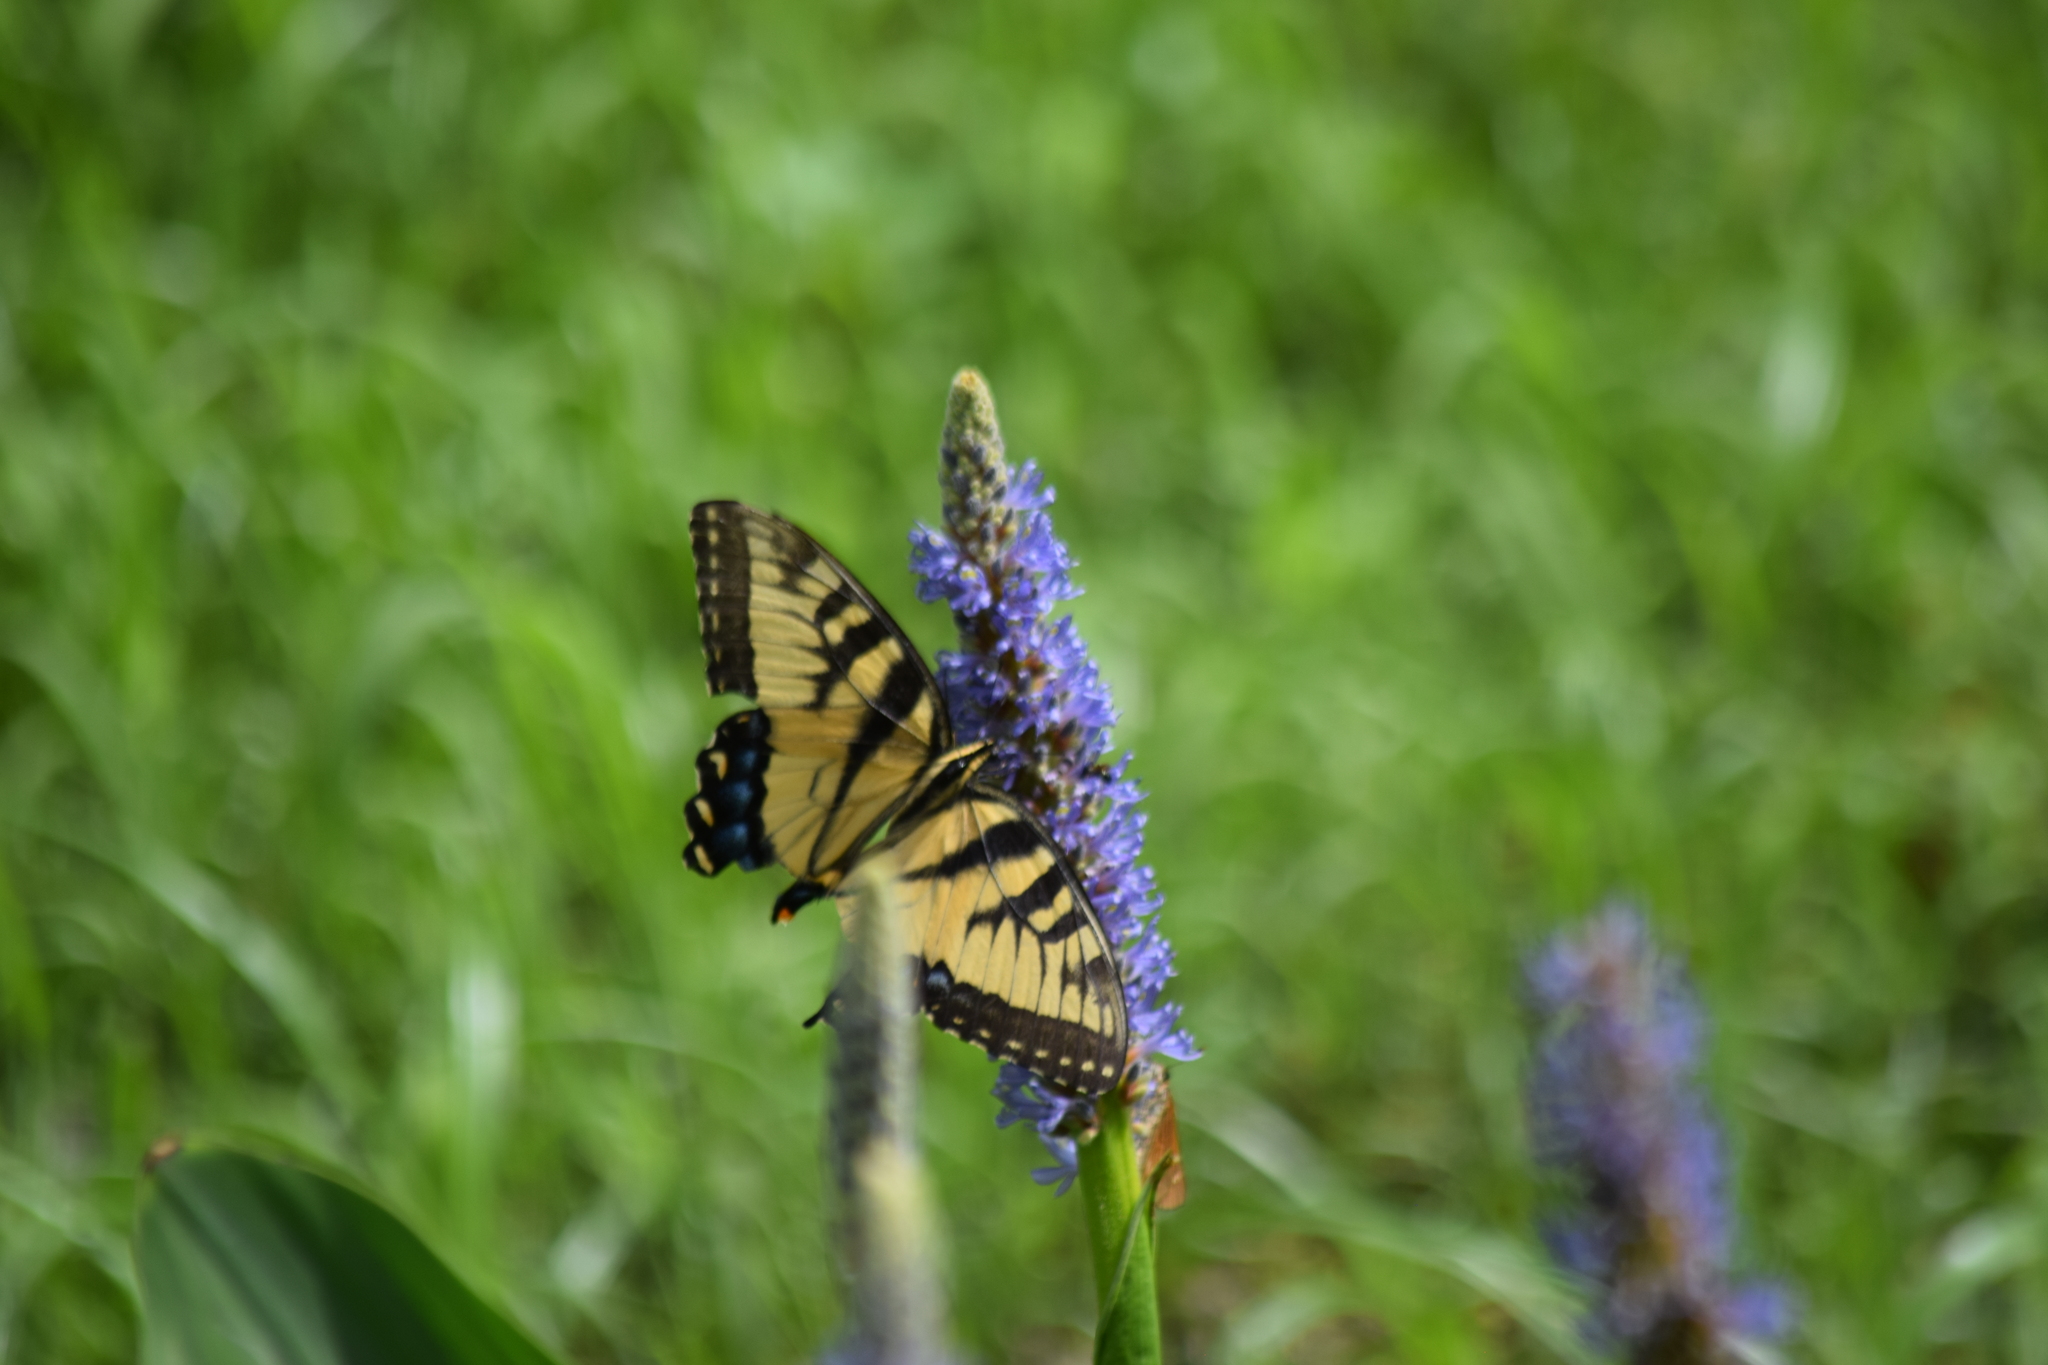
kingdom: Animalia
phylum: Arthropoda
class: Insecta
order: Lepidoptera
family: Papilionidae
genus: Papilio
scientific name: Papilio glaucus
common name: Tiger swallowtail
